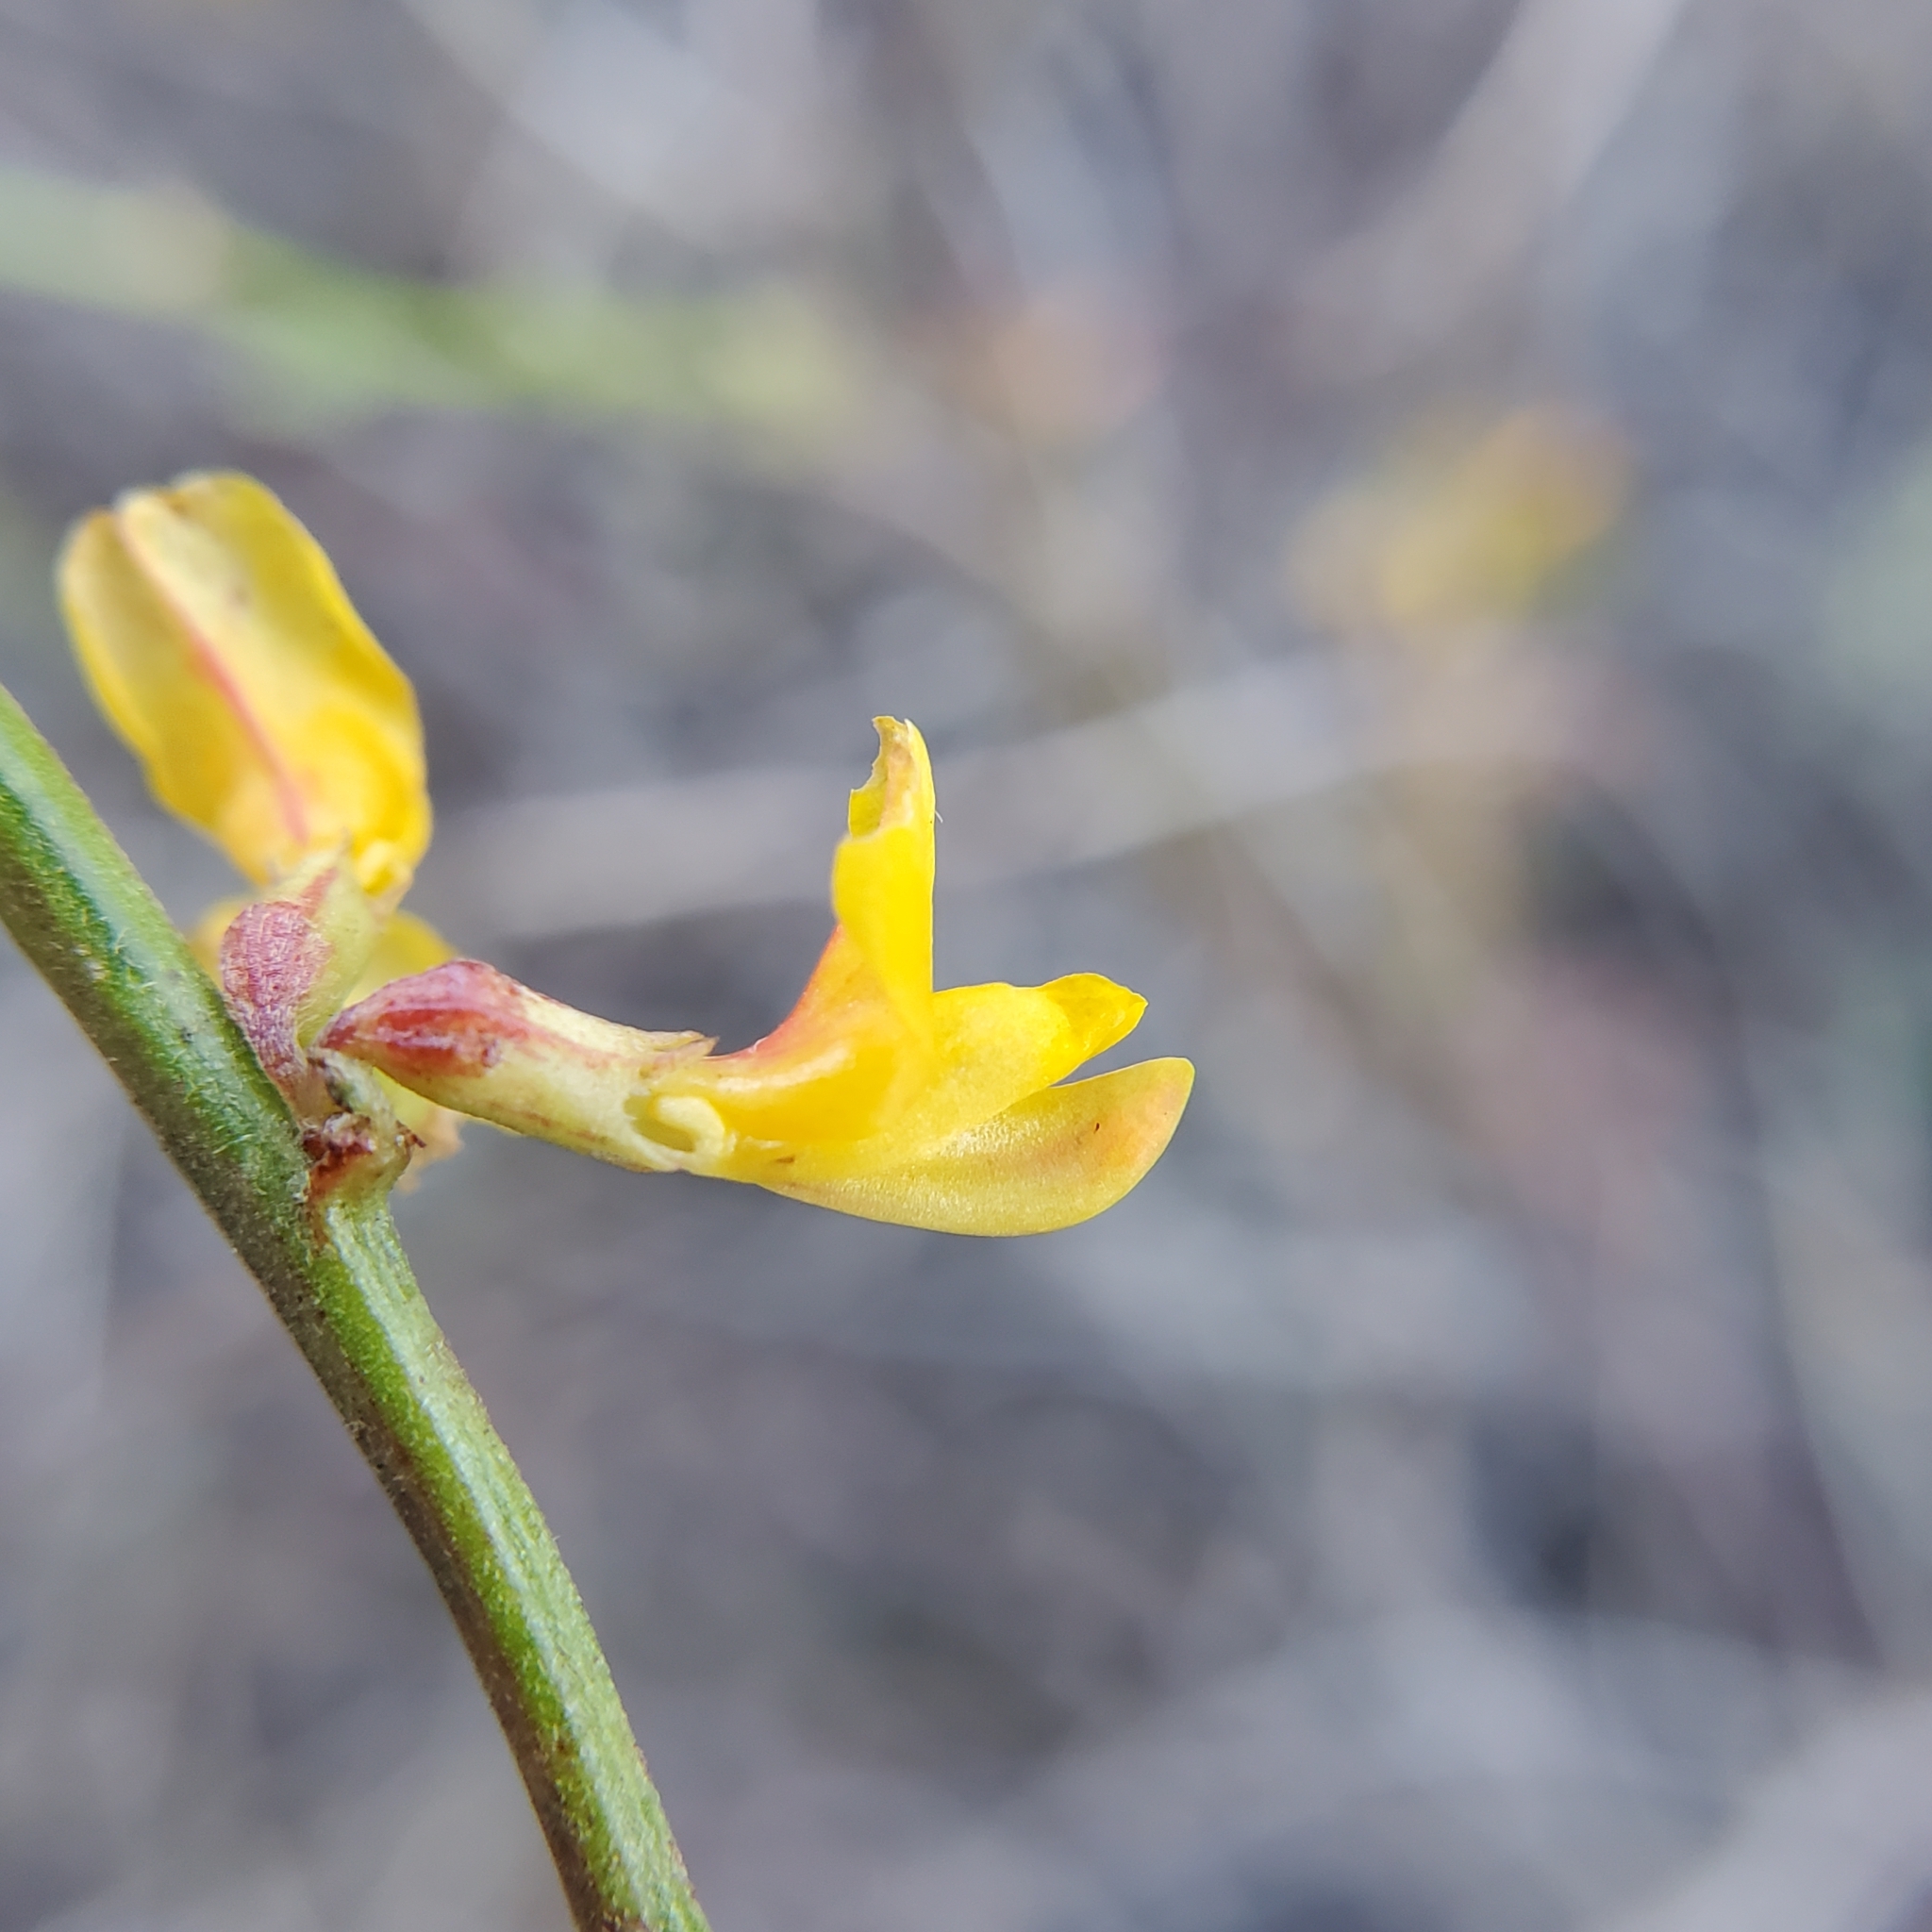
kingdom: Plantae
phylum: Tracheophyta
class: Magnoliopsida
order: Fabales
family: Fabaceae
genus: Acmispon
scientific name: Acmispon glaber
